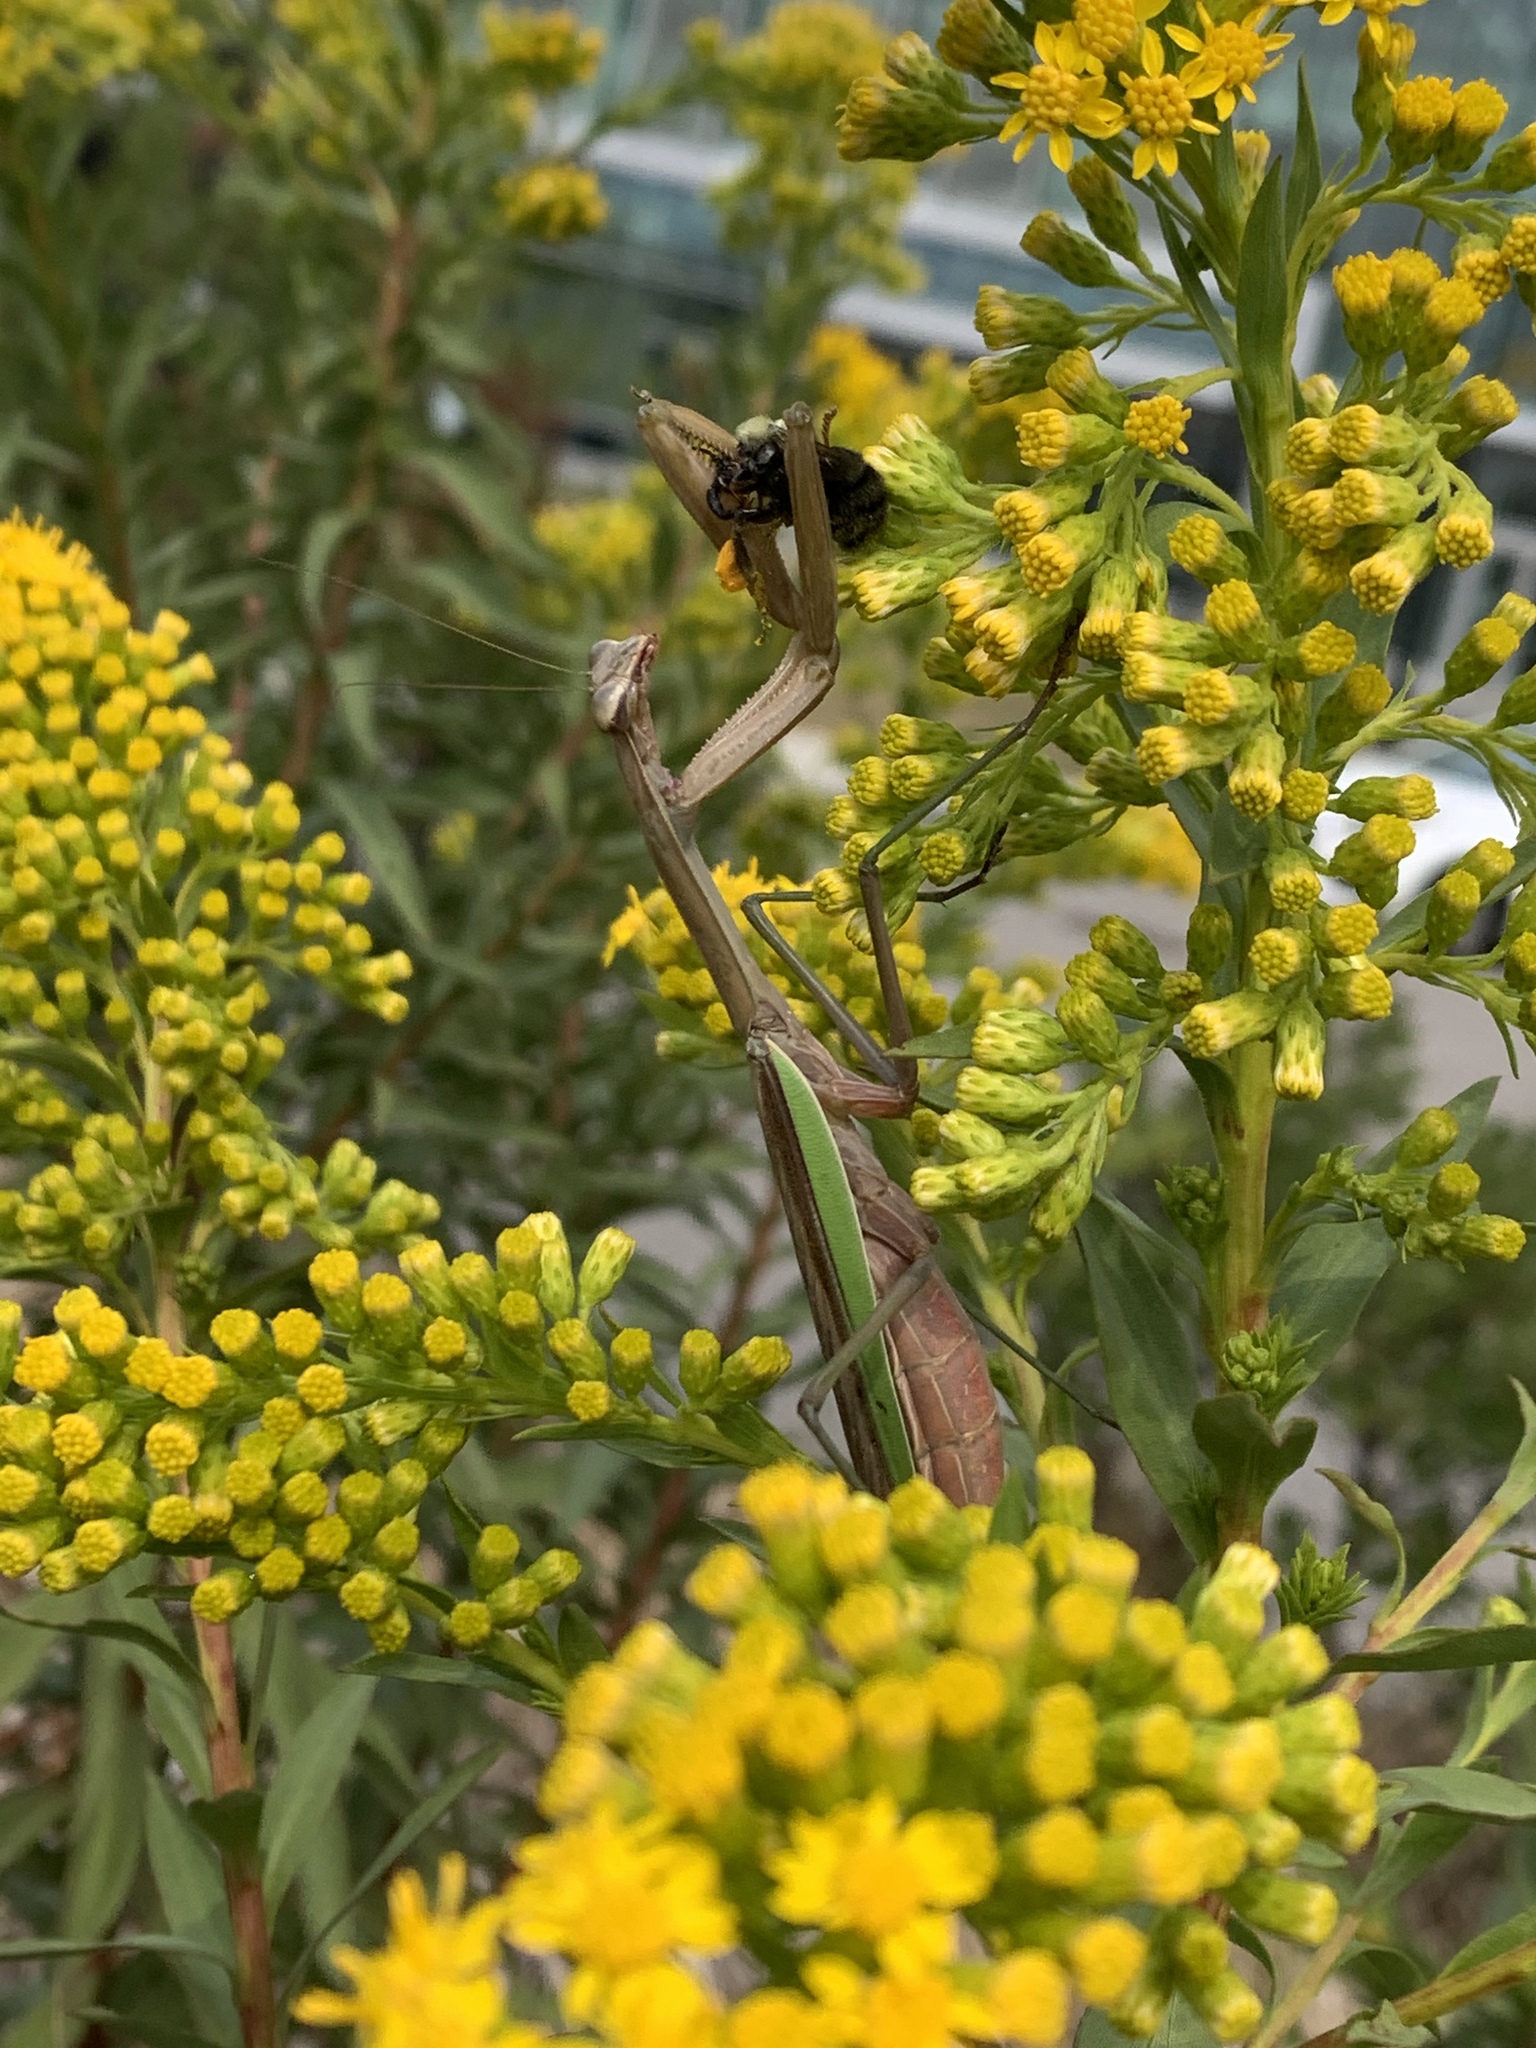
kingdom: Animalia
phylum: Arthropoda
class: Insecta
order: Mantodea
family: Mantidae
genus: Tenodera
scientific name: Tenodera sinensis
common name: Chinese mantis
